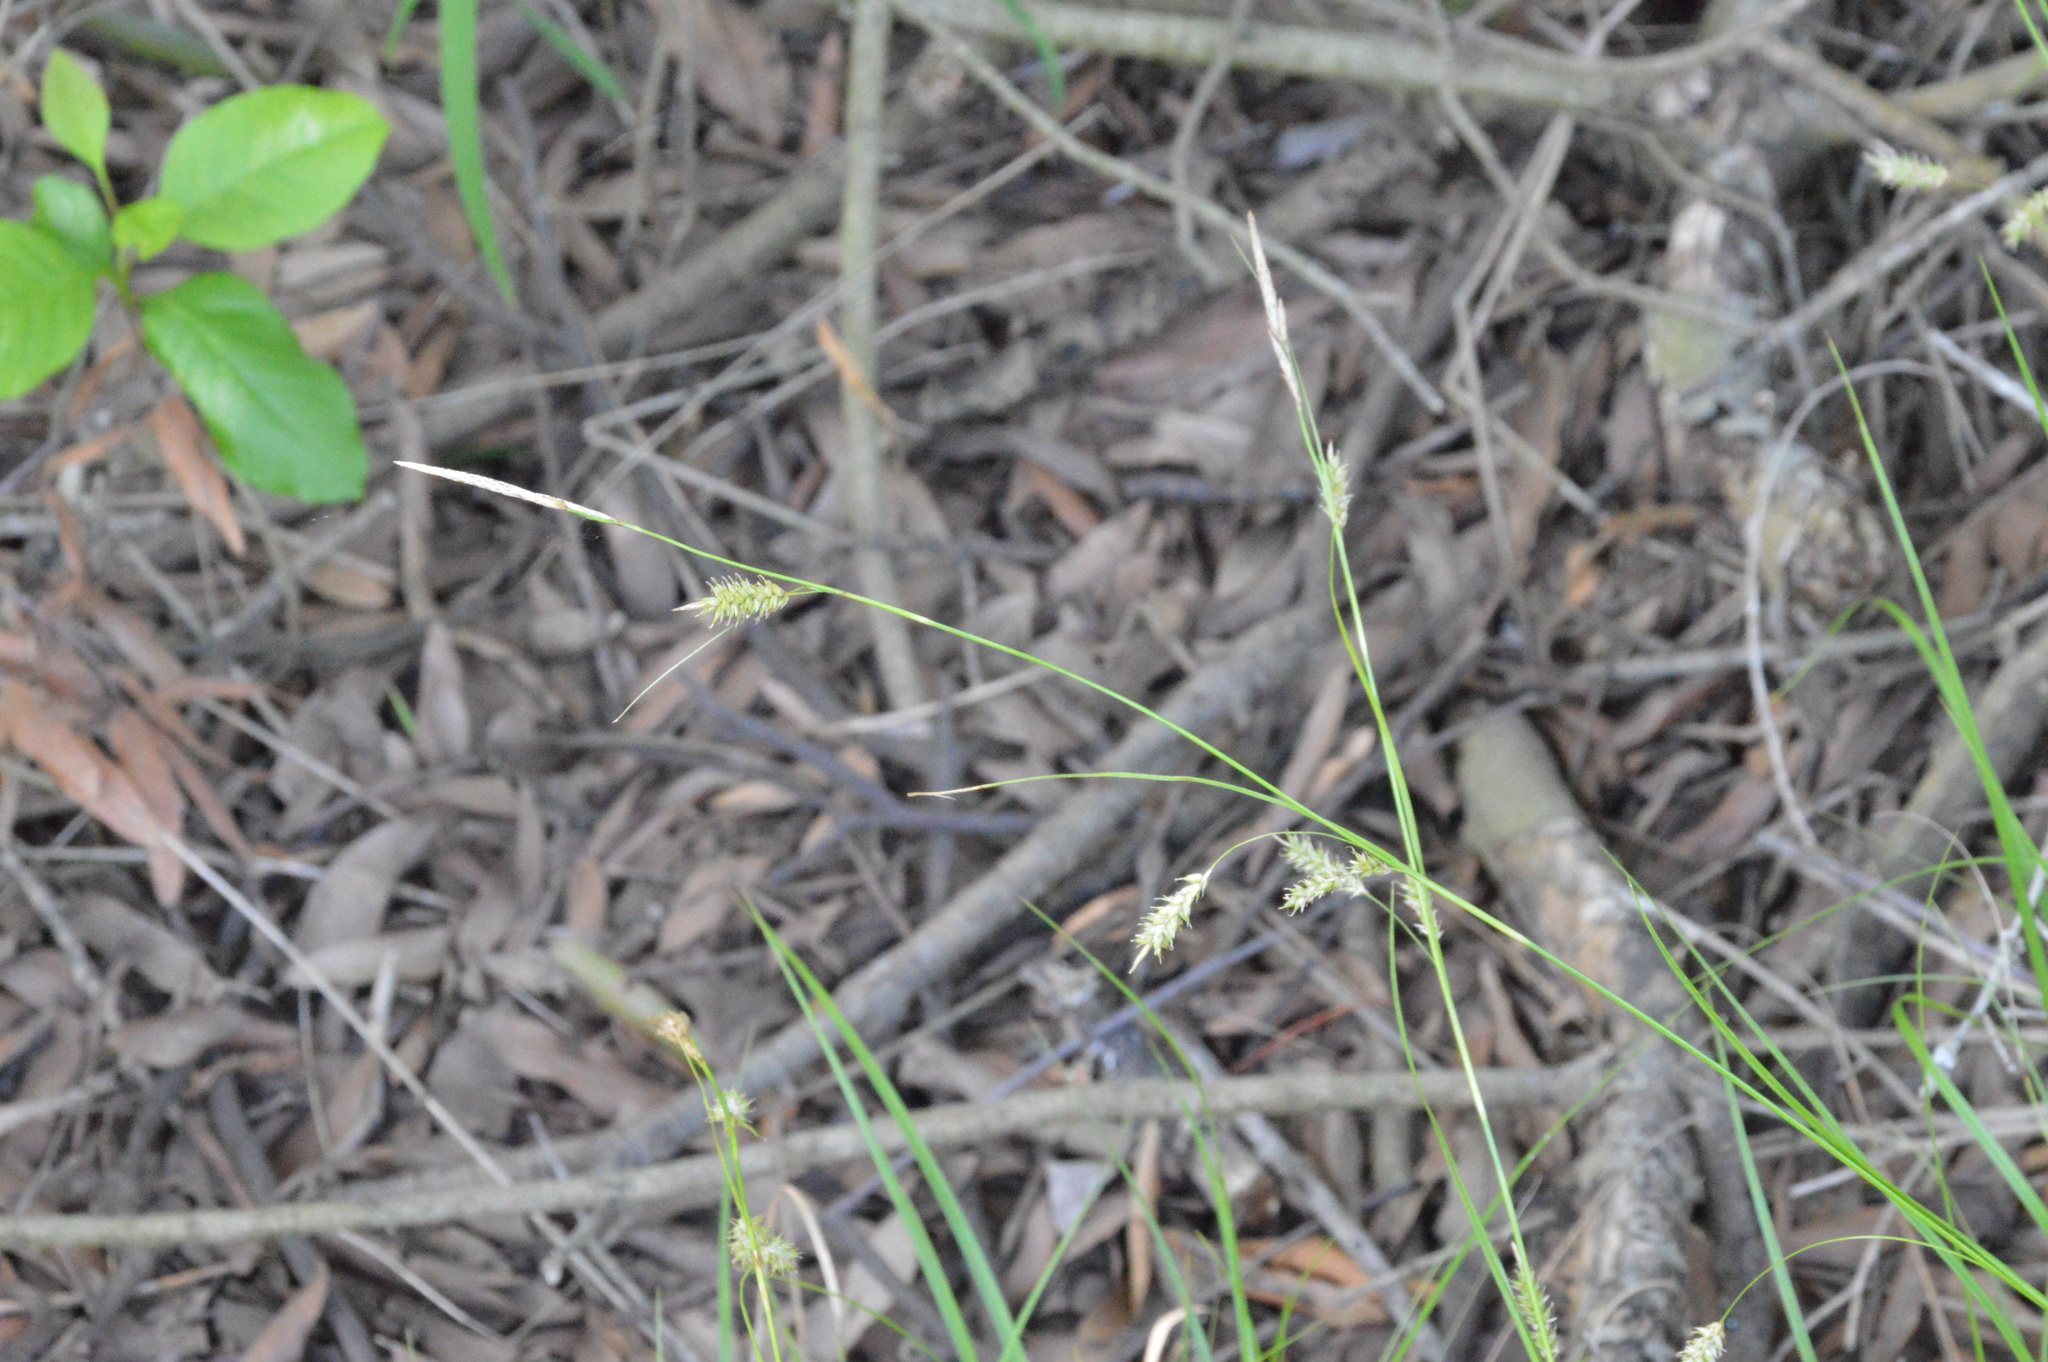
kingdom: Plantae
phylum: Tracheophyta
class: Liliopsida
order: Poales
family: Cyperaceae
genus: Carex
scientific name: Carex cherokeensis
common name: Cherokee sedge
